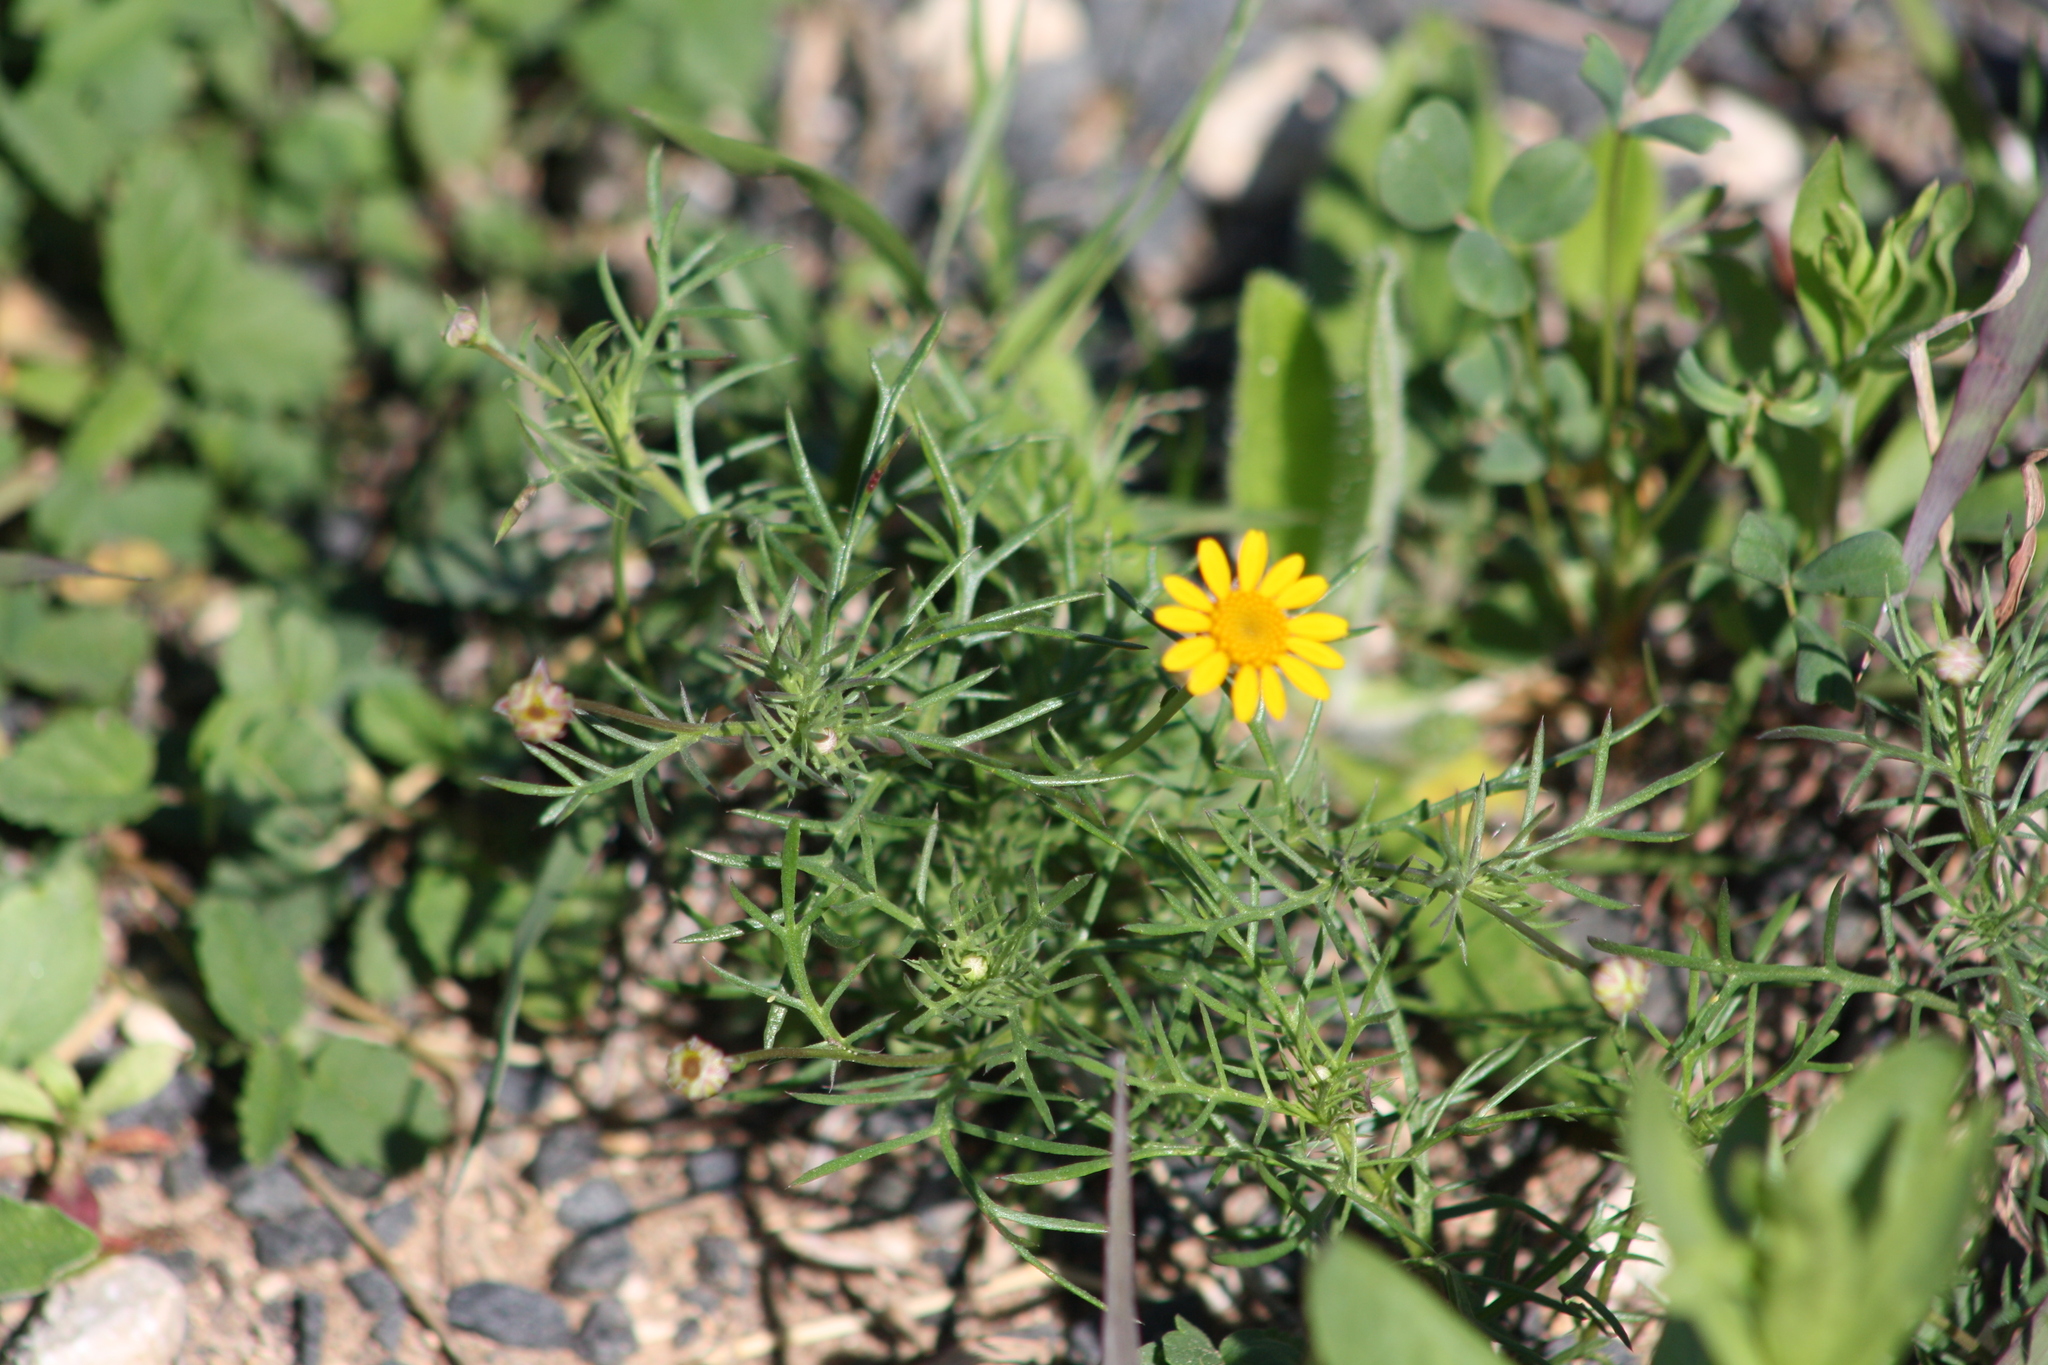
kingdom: Plantae
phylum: Tracheophyta
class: Magnoliopsida
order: Asterales
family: Asteraceae
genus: Thymophylla
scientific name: Thymophylla tenuiloba
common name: Dahlberg's daisy
